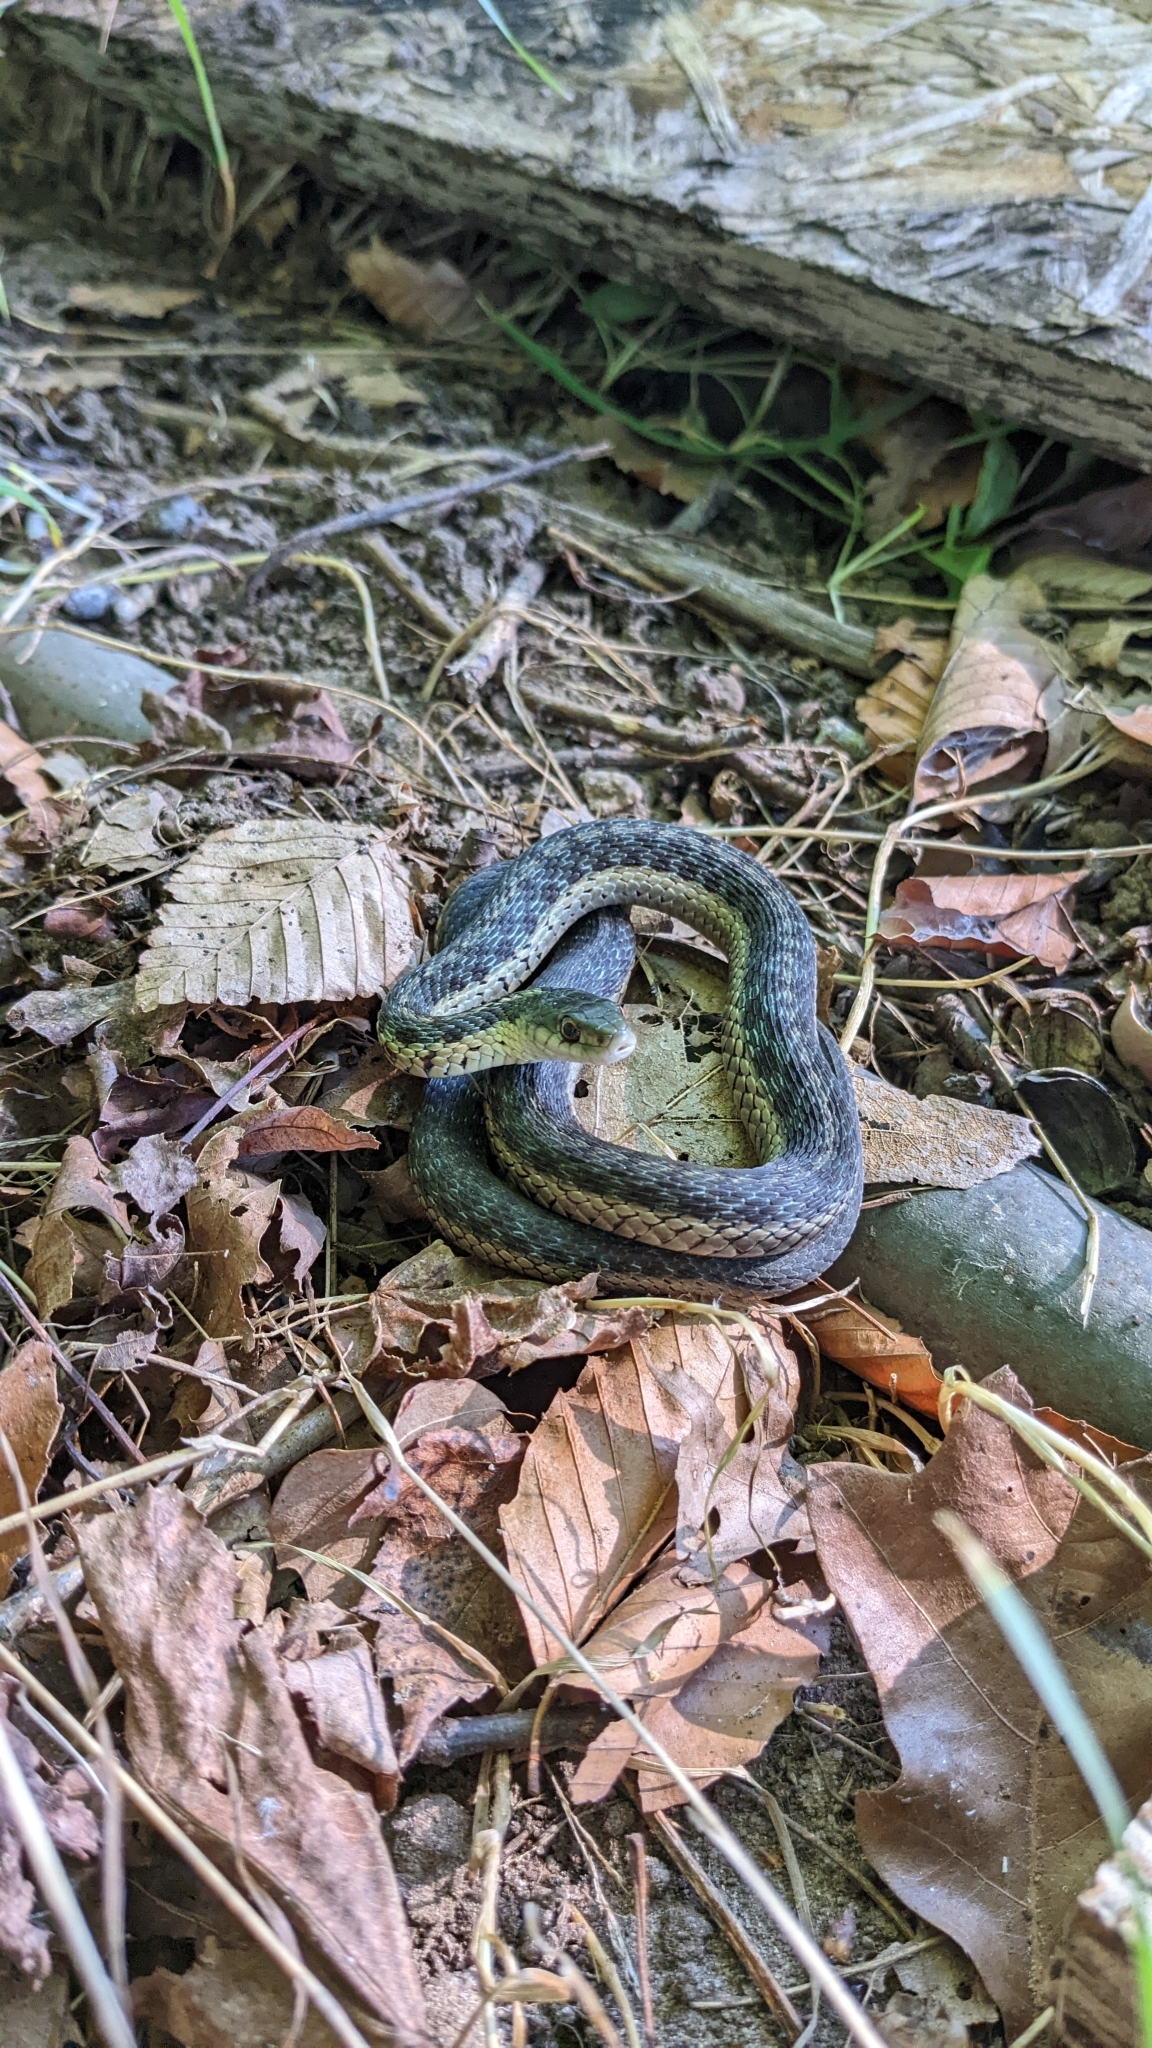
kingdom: Animalia
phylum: Chordata
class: Squamata
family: Colubridae
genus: Thamnophis
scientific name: Thamnophis sirtalis
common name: Common garter snake
